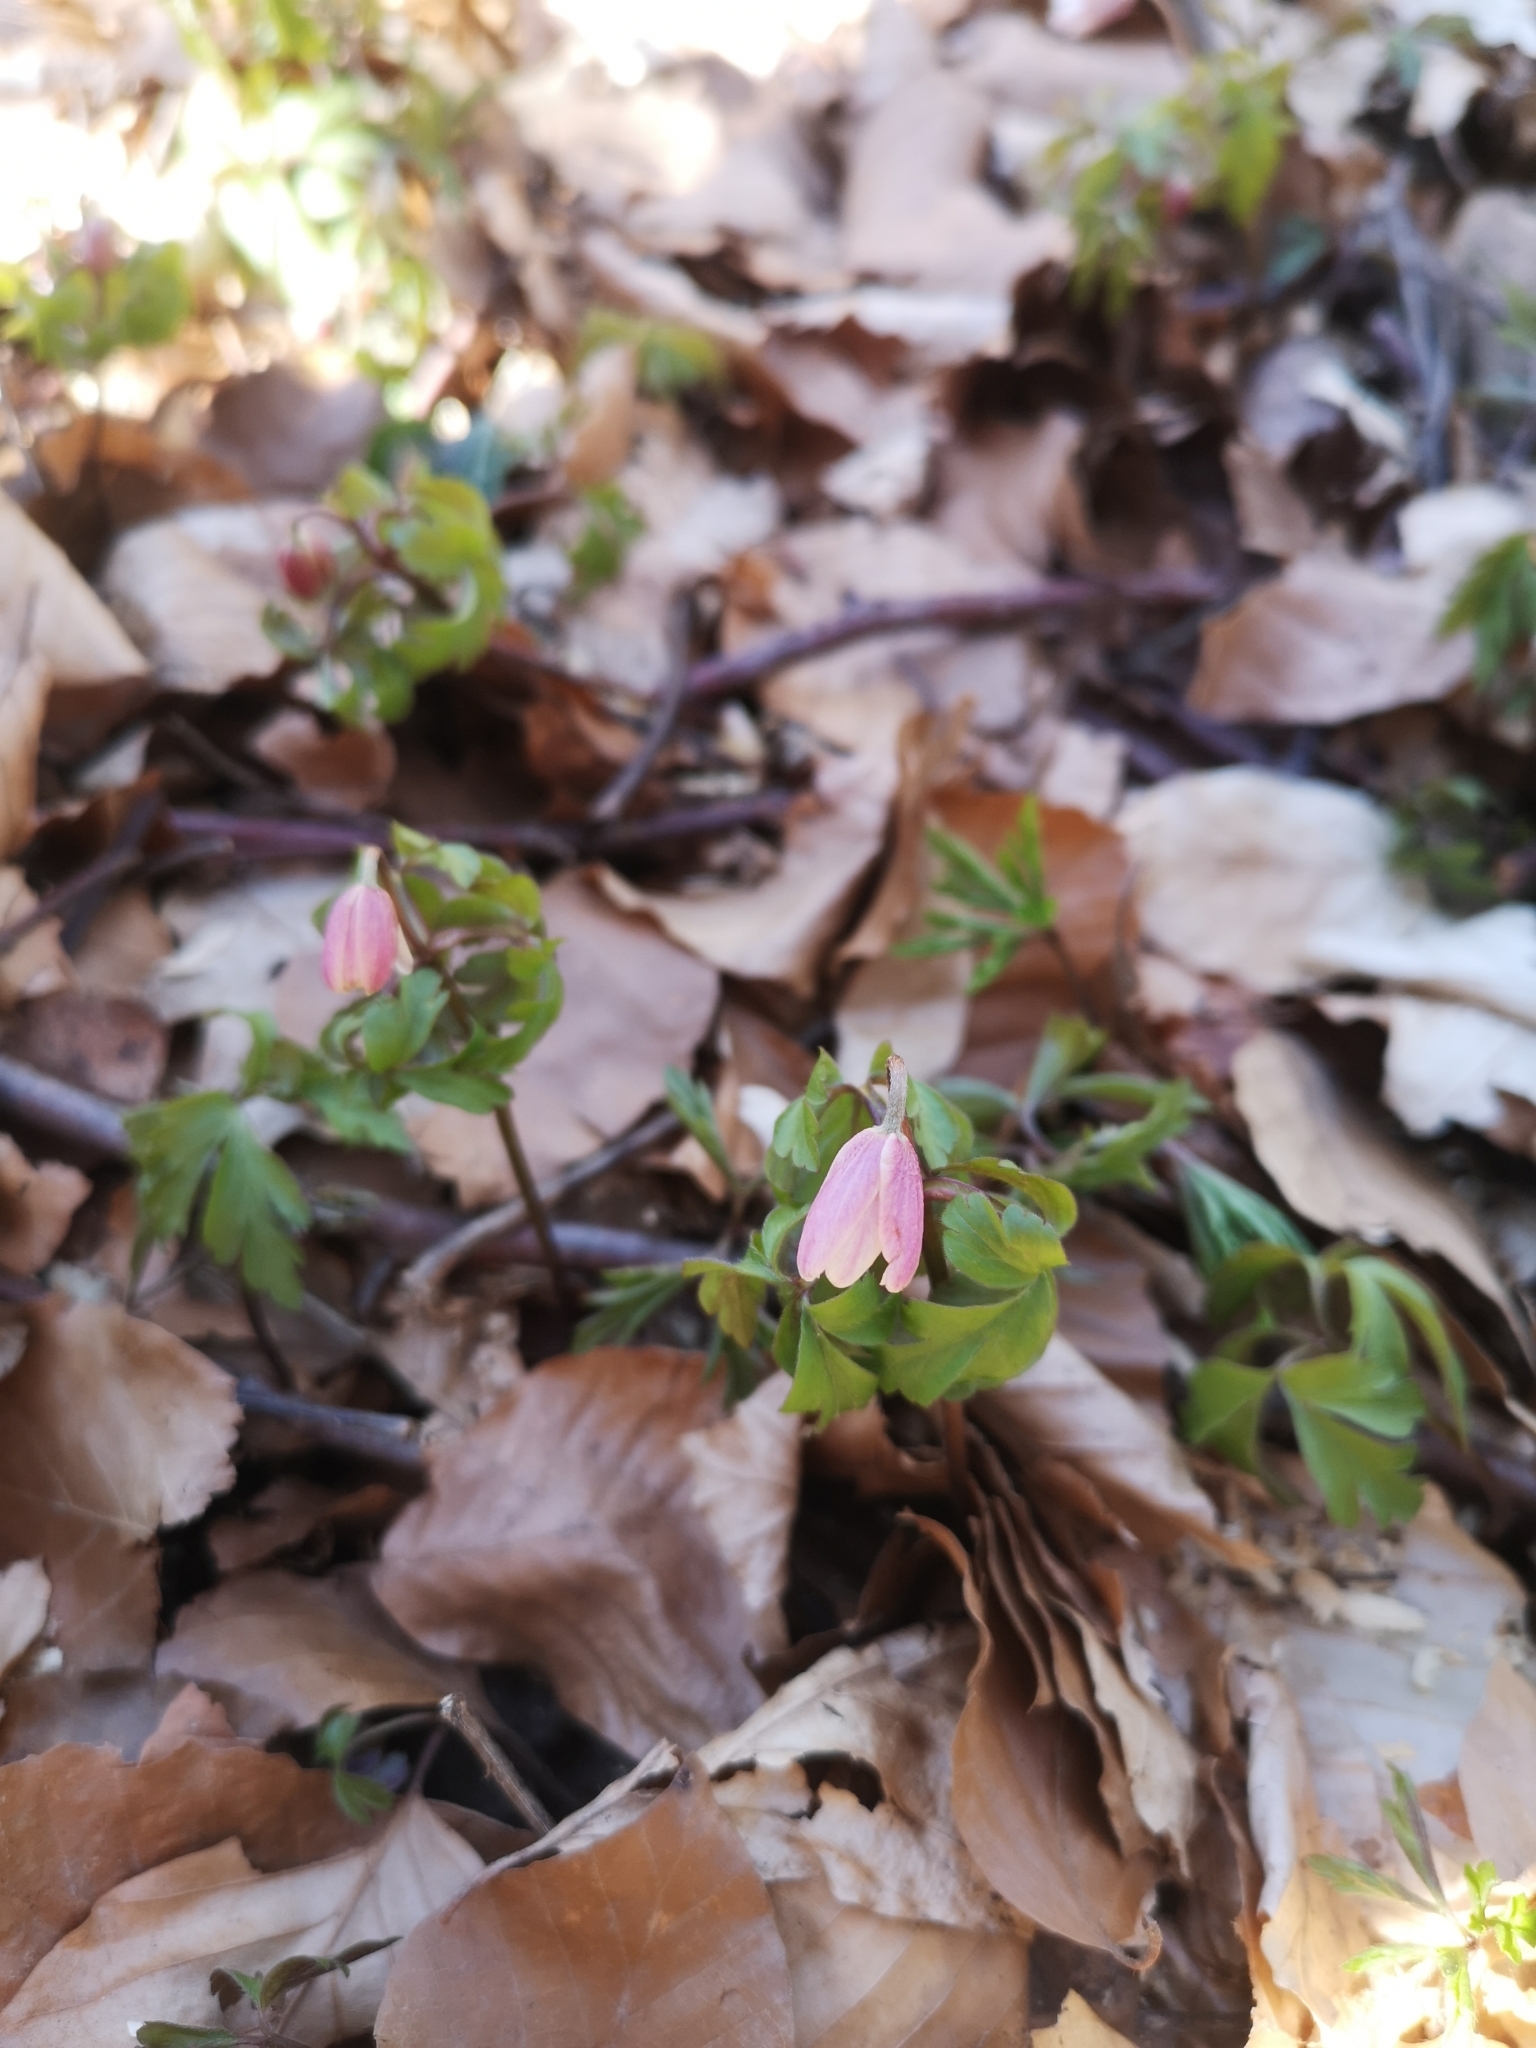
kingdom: Plantae
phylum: Tracheophyta
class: Magnoliopsida
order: Ranunculales
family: Ranunculaceae
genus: Anemone
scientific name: Anemone nemorosa
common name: Wood anemone
